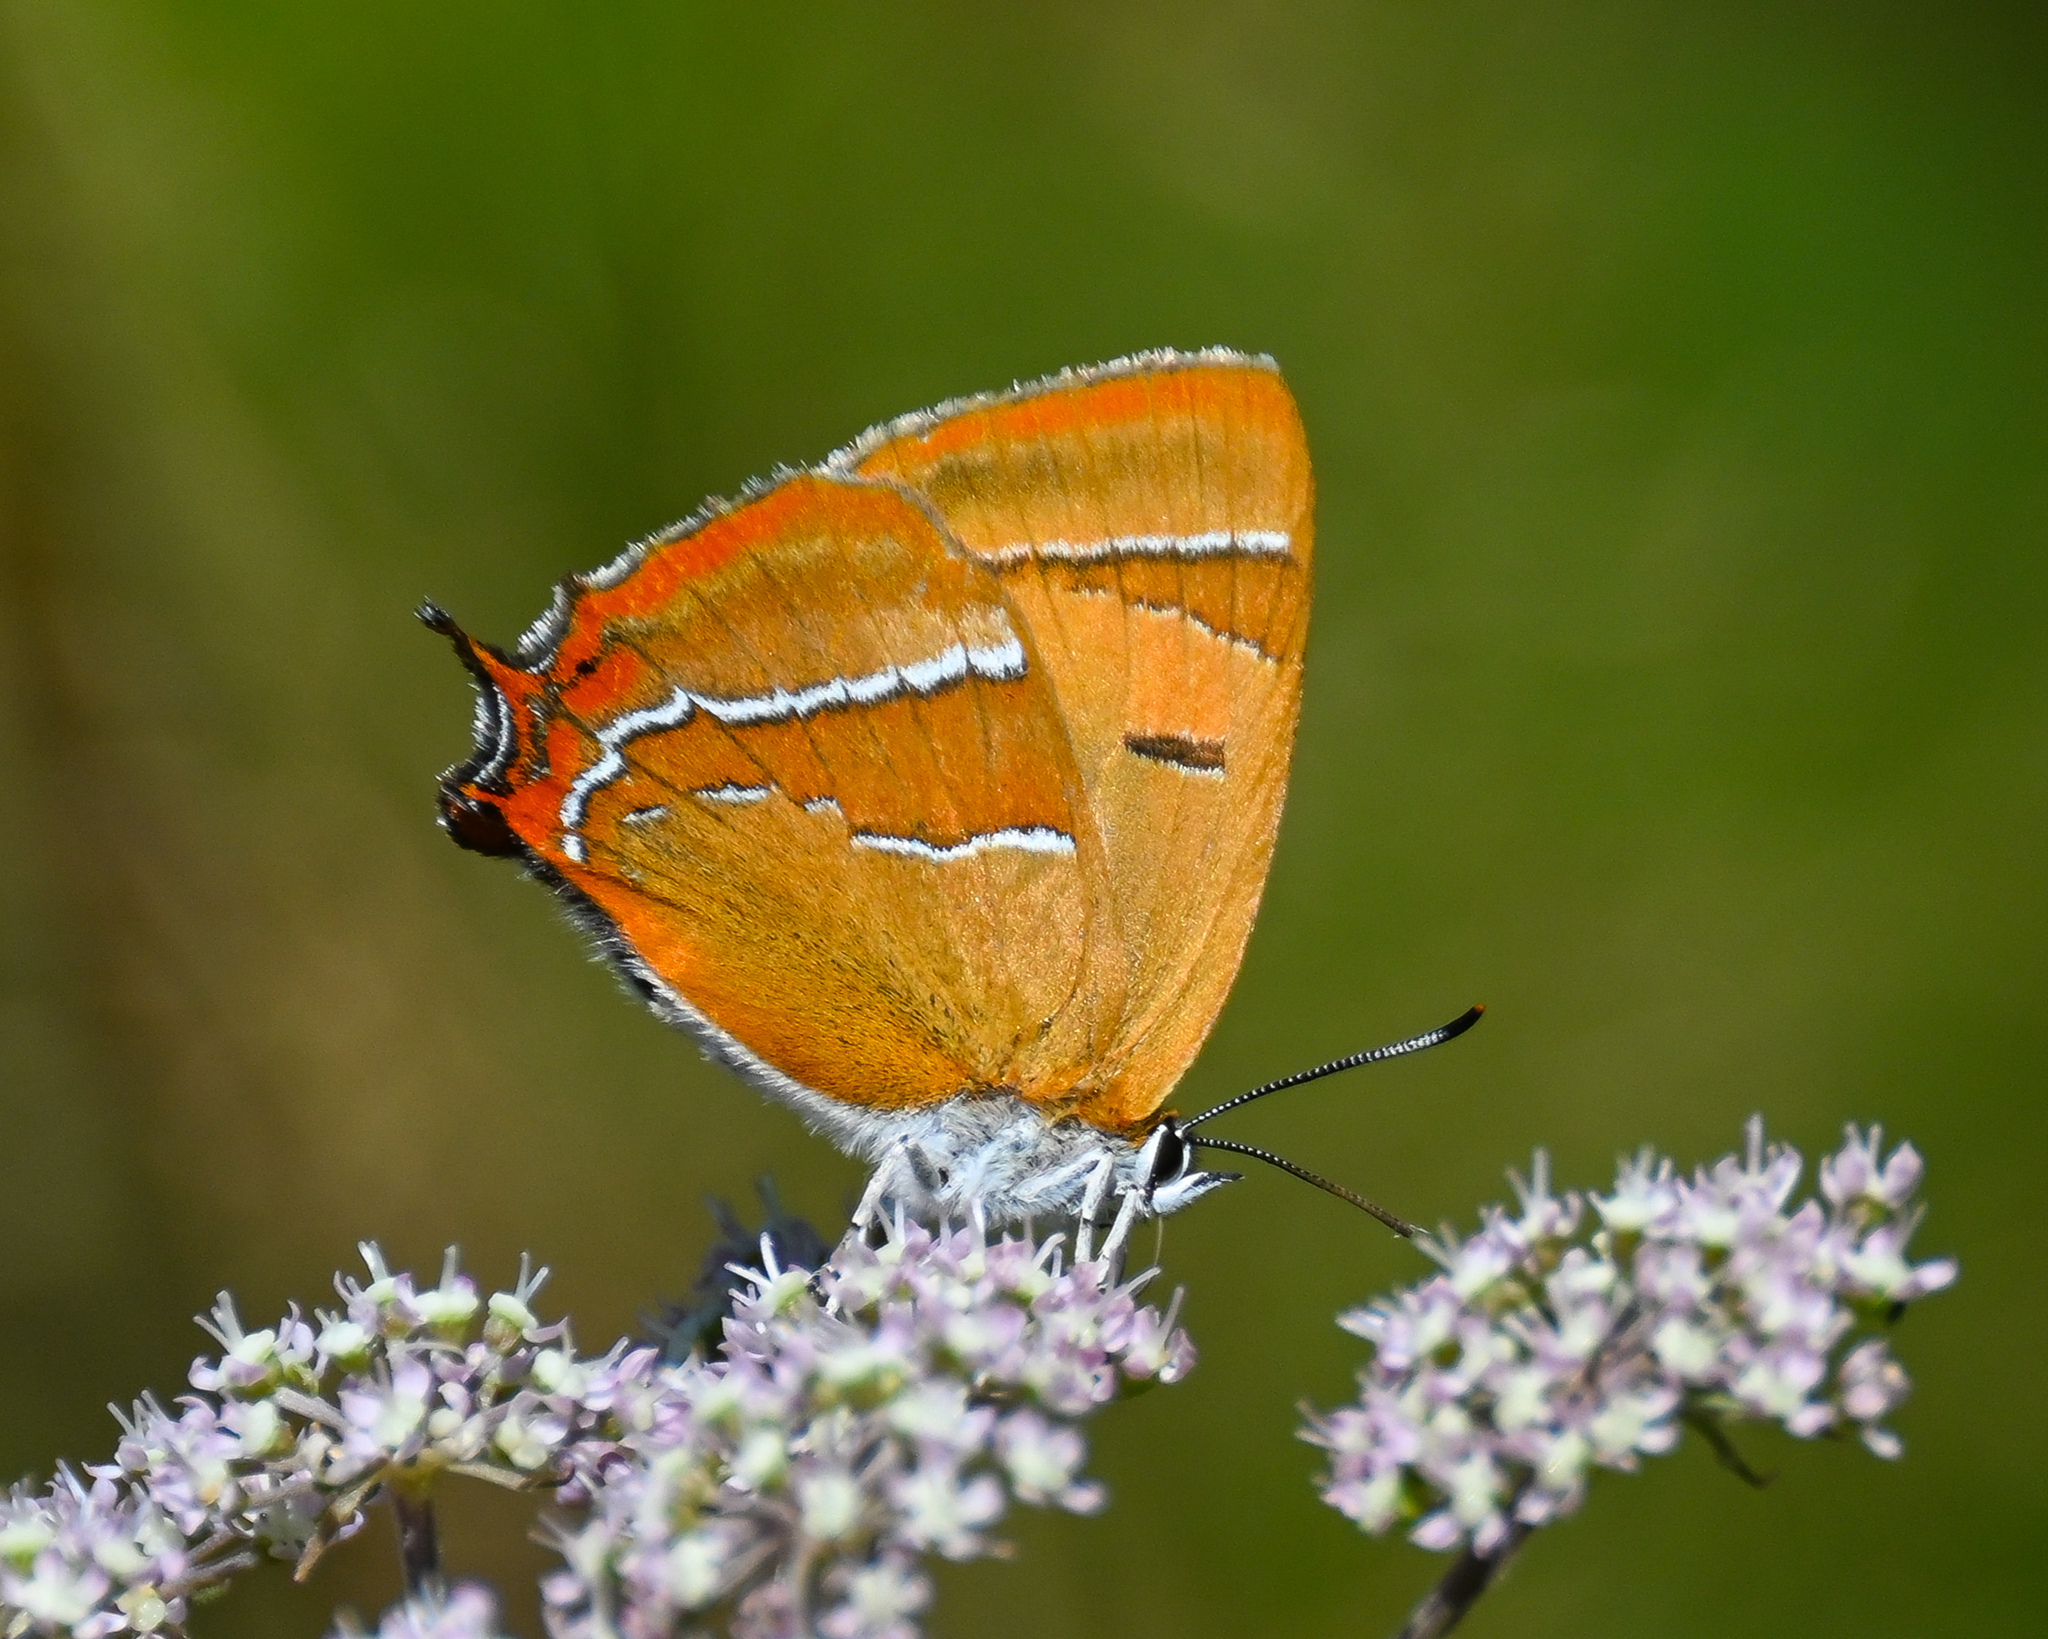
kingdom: Animalia
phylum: Arthropoda
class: Insecta
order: Lepidoptera
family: Lycaenidae
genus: Thecla
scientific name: Thecla betulae
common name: Brown hairstreak
